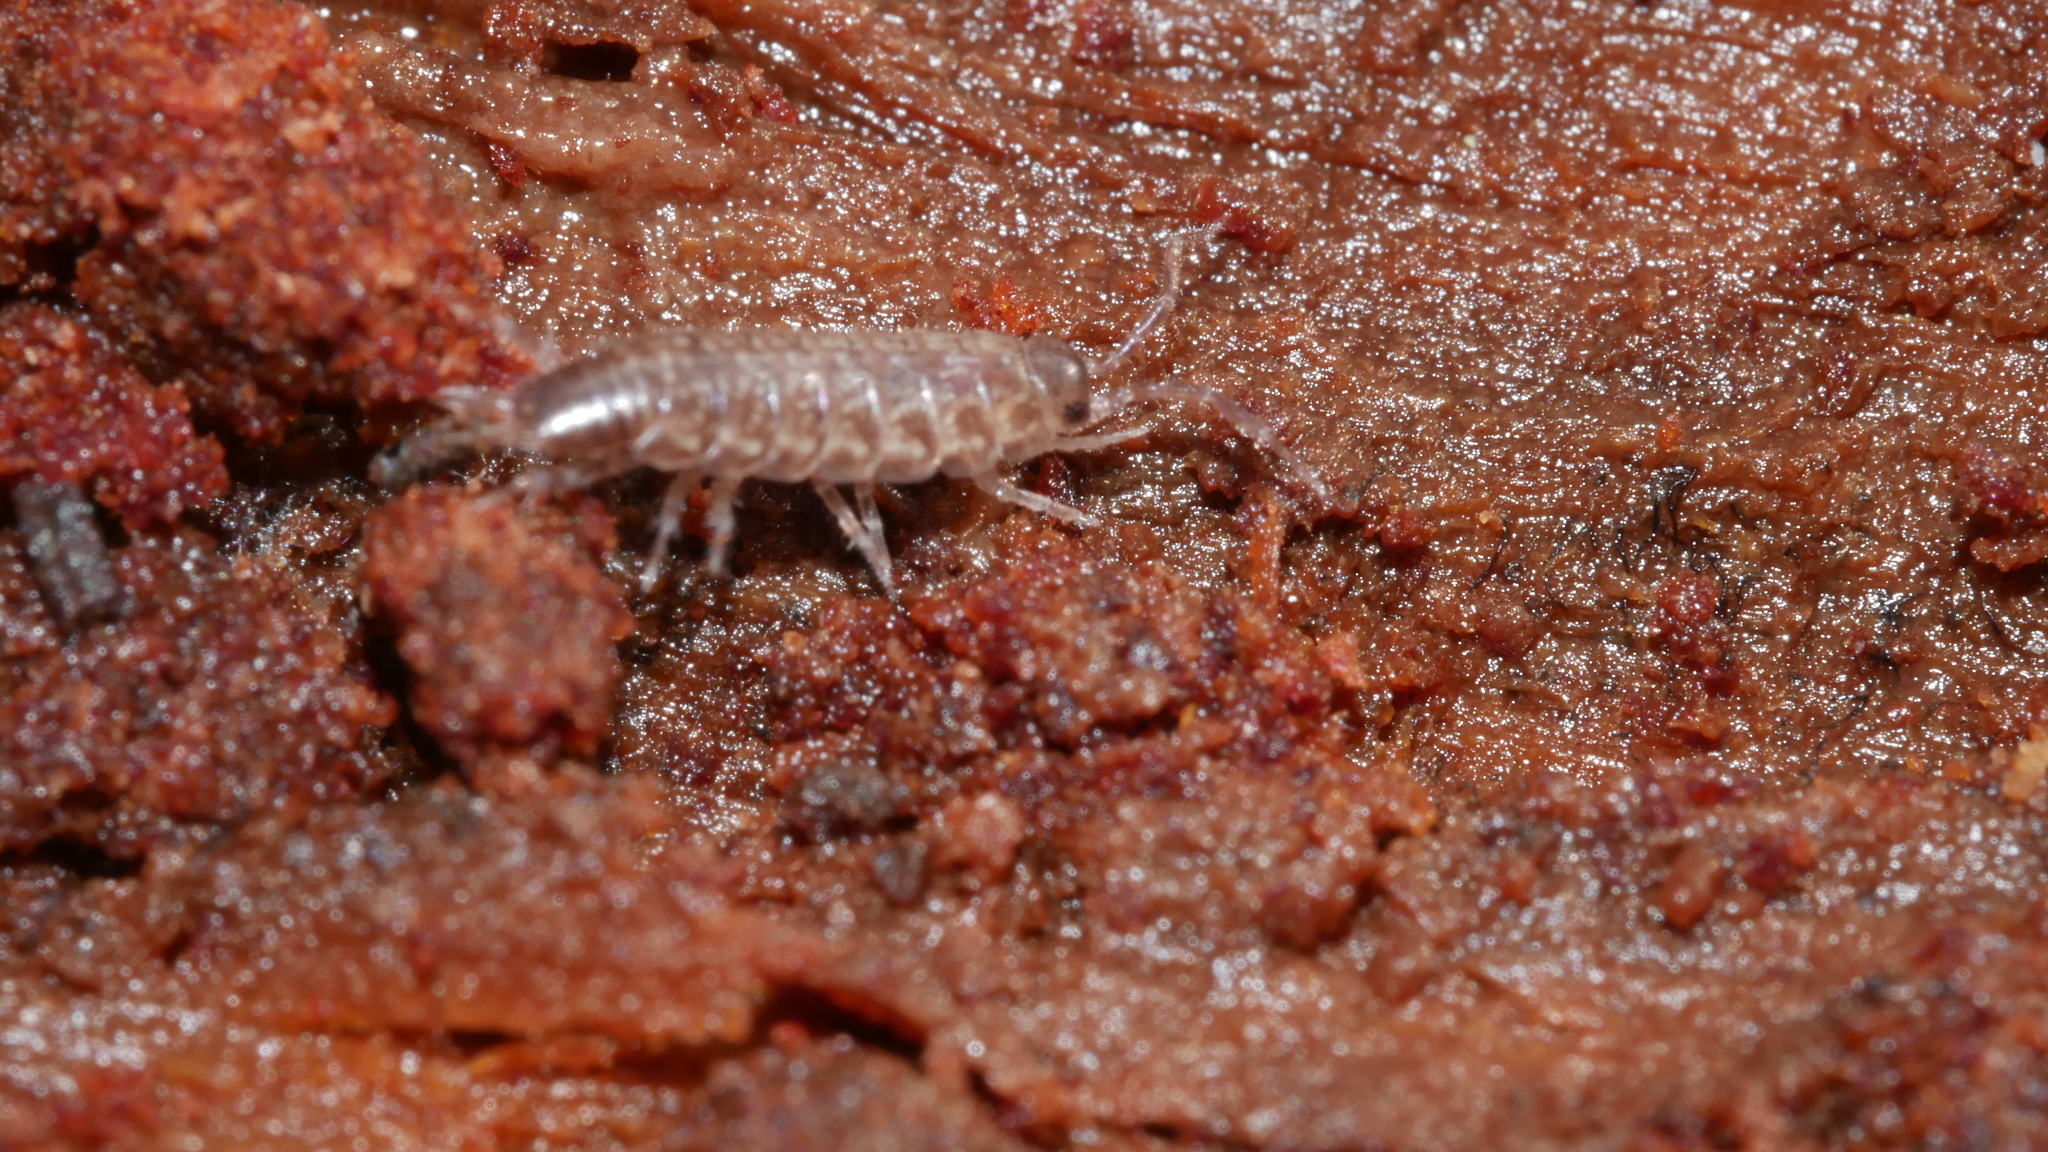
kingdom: Animalia
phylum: Arthropoda
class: Malacostraca
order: Isopoda
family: Philosciidae
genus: Chaetophiloscia
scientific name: Chaetophiloscia sicula
